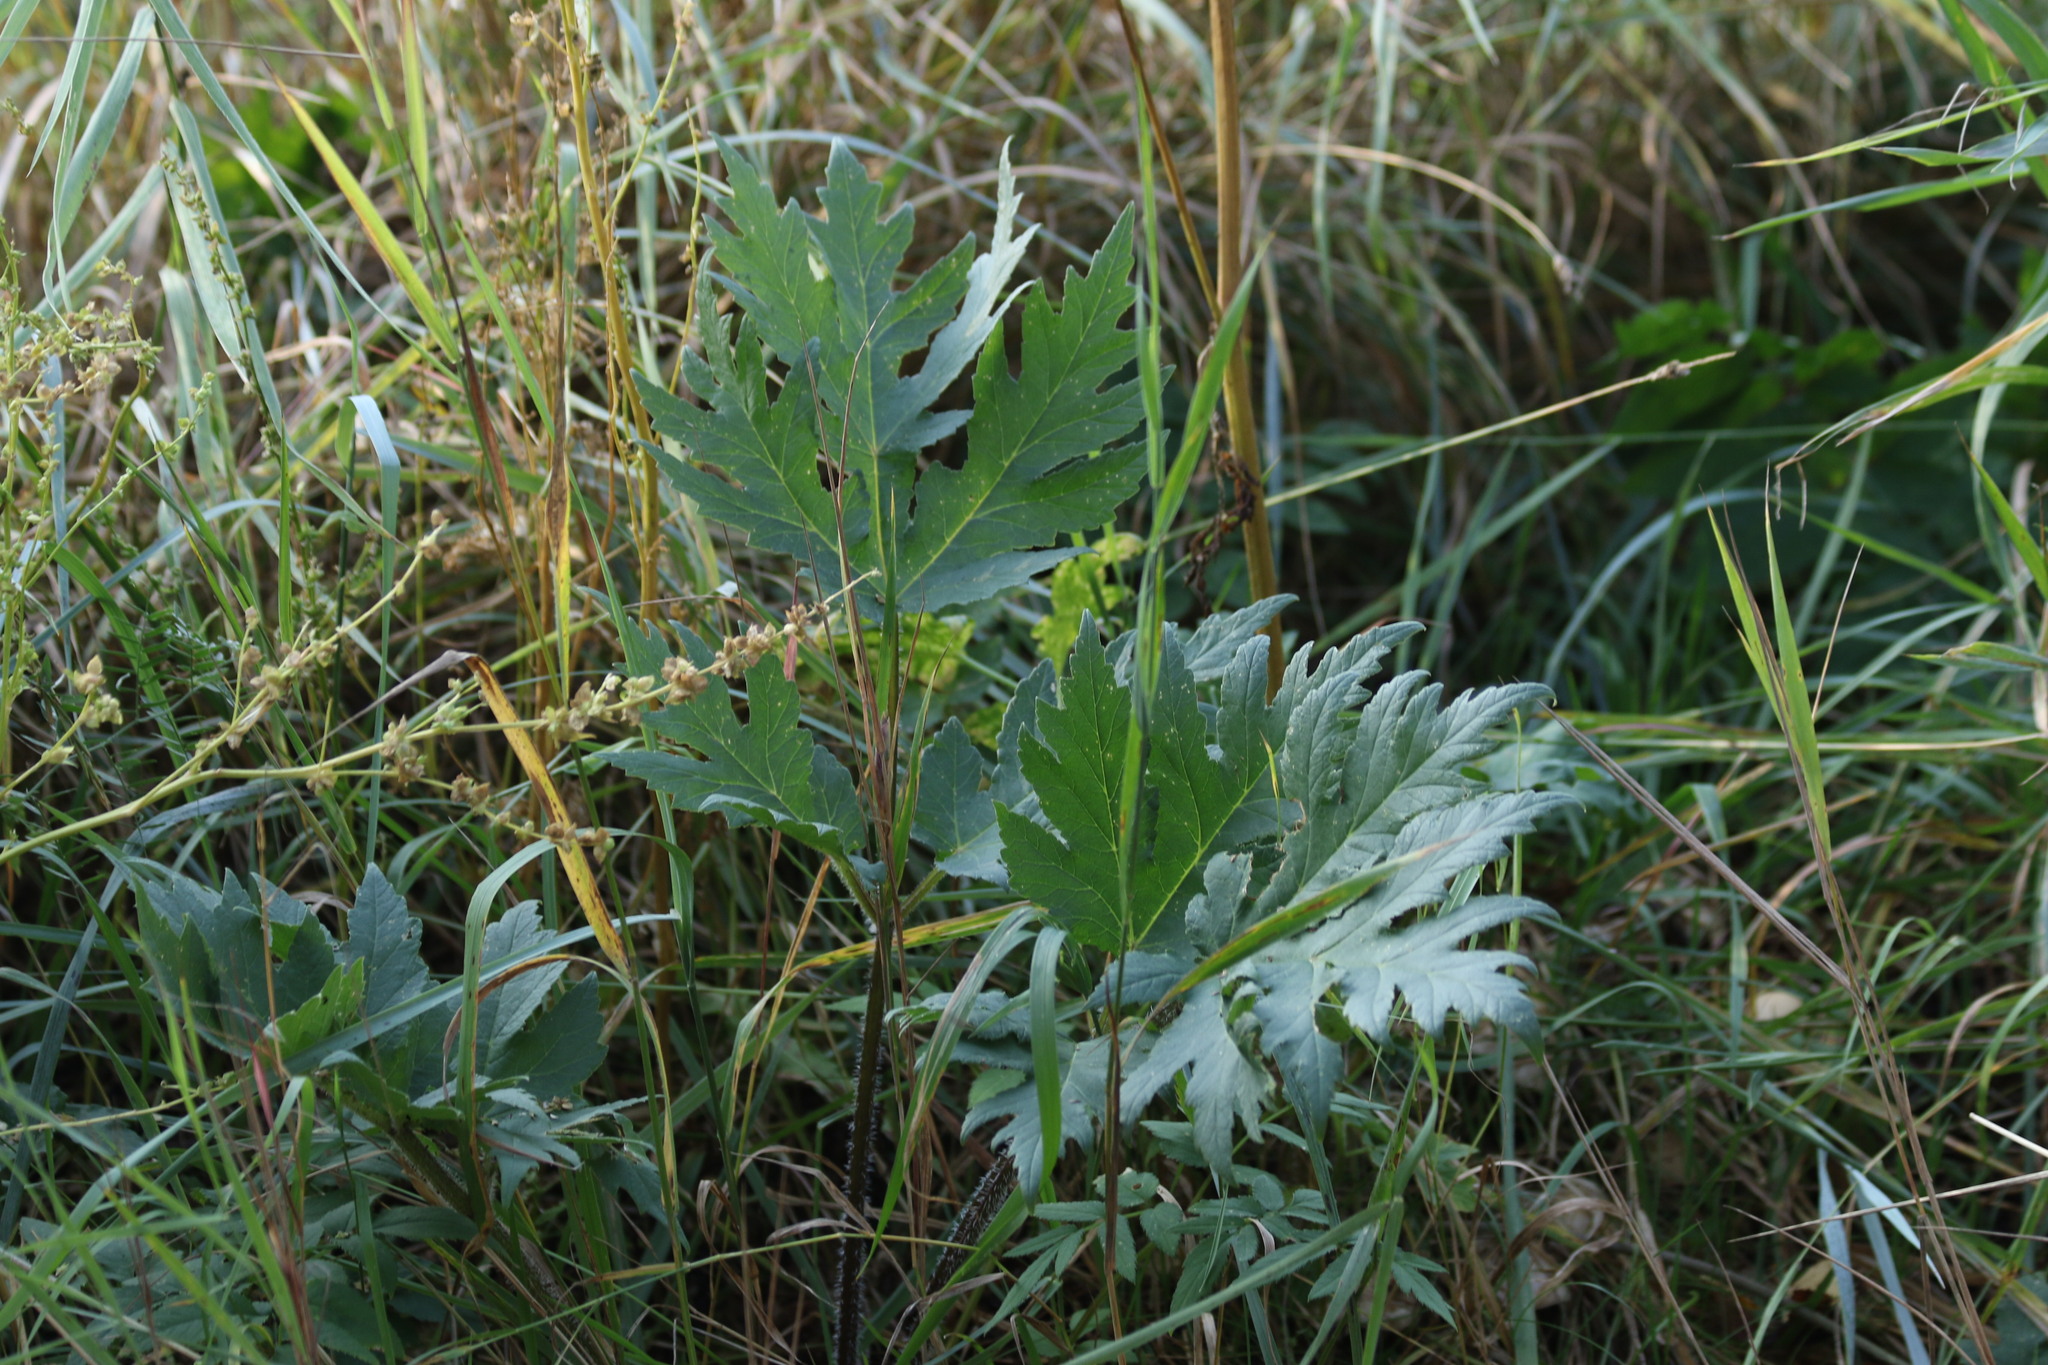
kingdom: Plantae
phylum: Tracheophyta
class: Magnoliopsida
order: Apiales
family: Apiaceae
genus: Heracleum
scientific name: Heracleum sphondylium
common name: Hogweed
